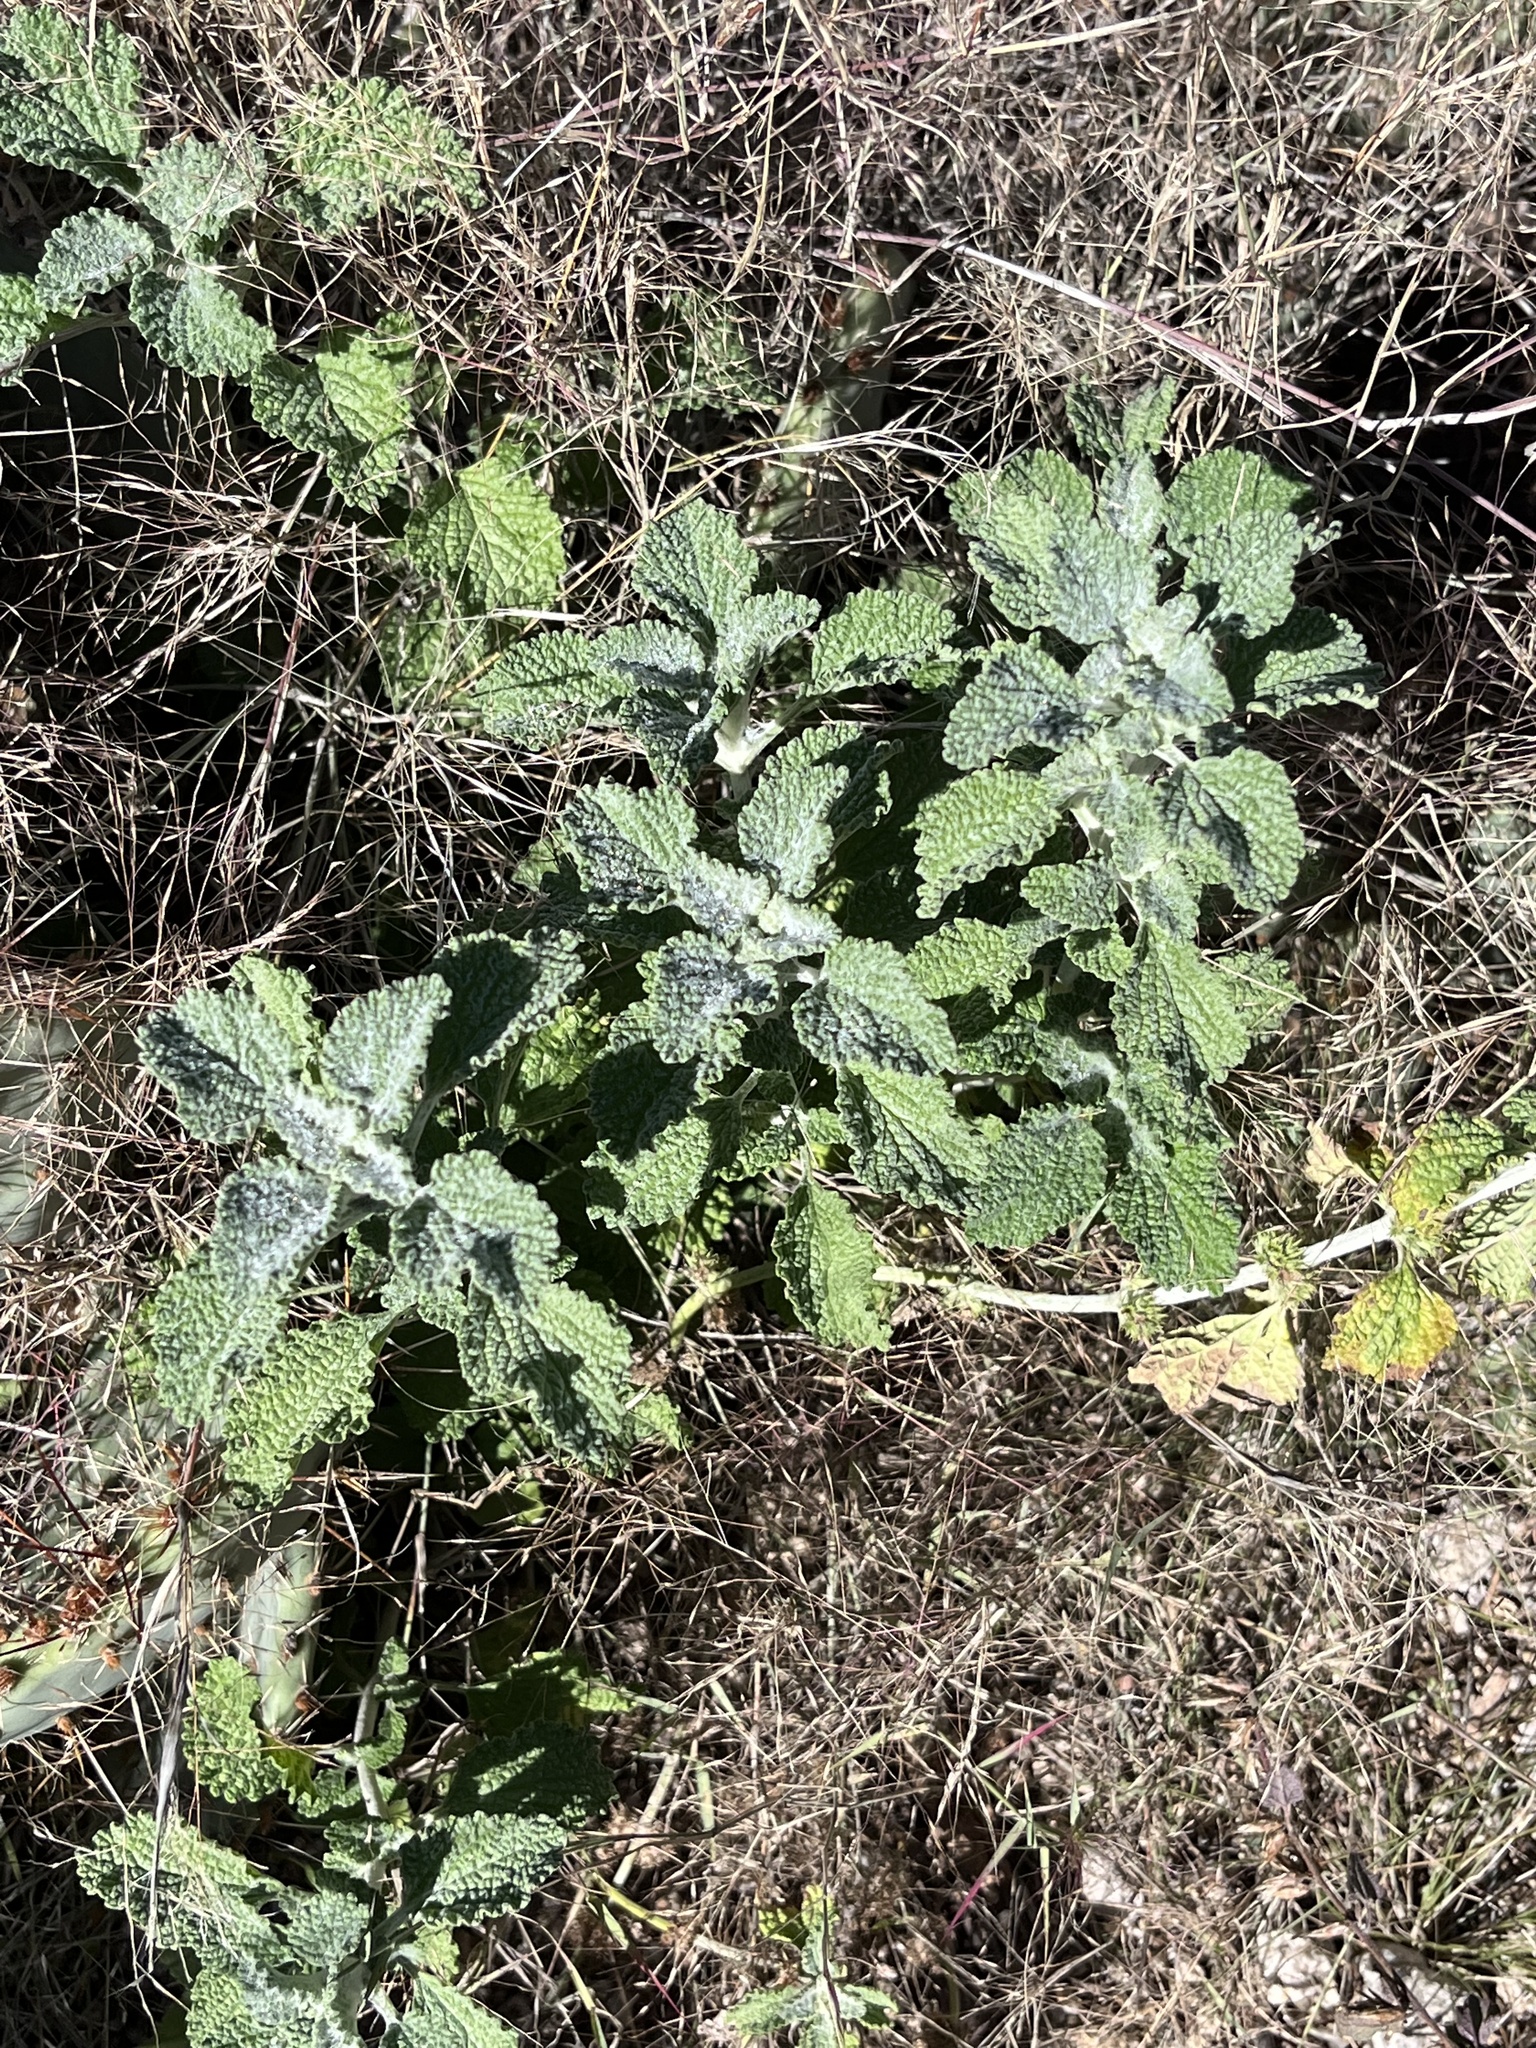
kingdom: Plantae
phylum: Tracheophyta
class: Magnoliopsida
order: Lamiales
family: Lamiaceae
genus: Marrubium
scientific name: Marrubium vulgare
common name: Horehound
